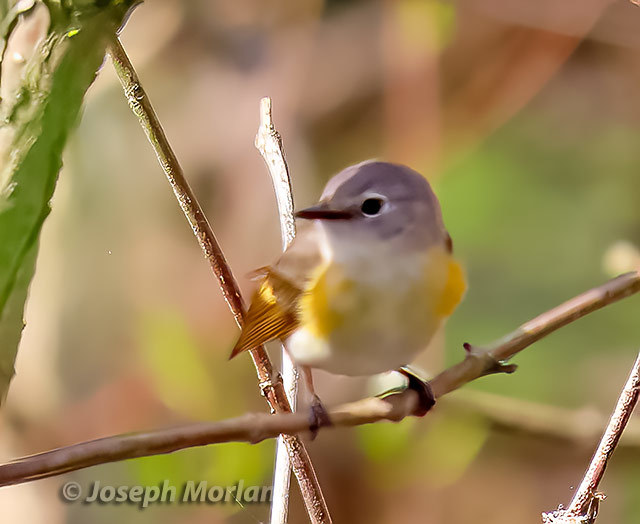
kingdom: Animalia
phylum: Chordata
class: Aves
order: Passeriformes
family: Parulidae
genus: Setophaga
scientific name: Setophaga ruticilla
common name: American redstart
